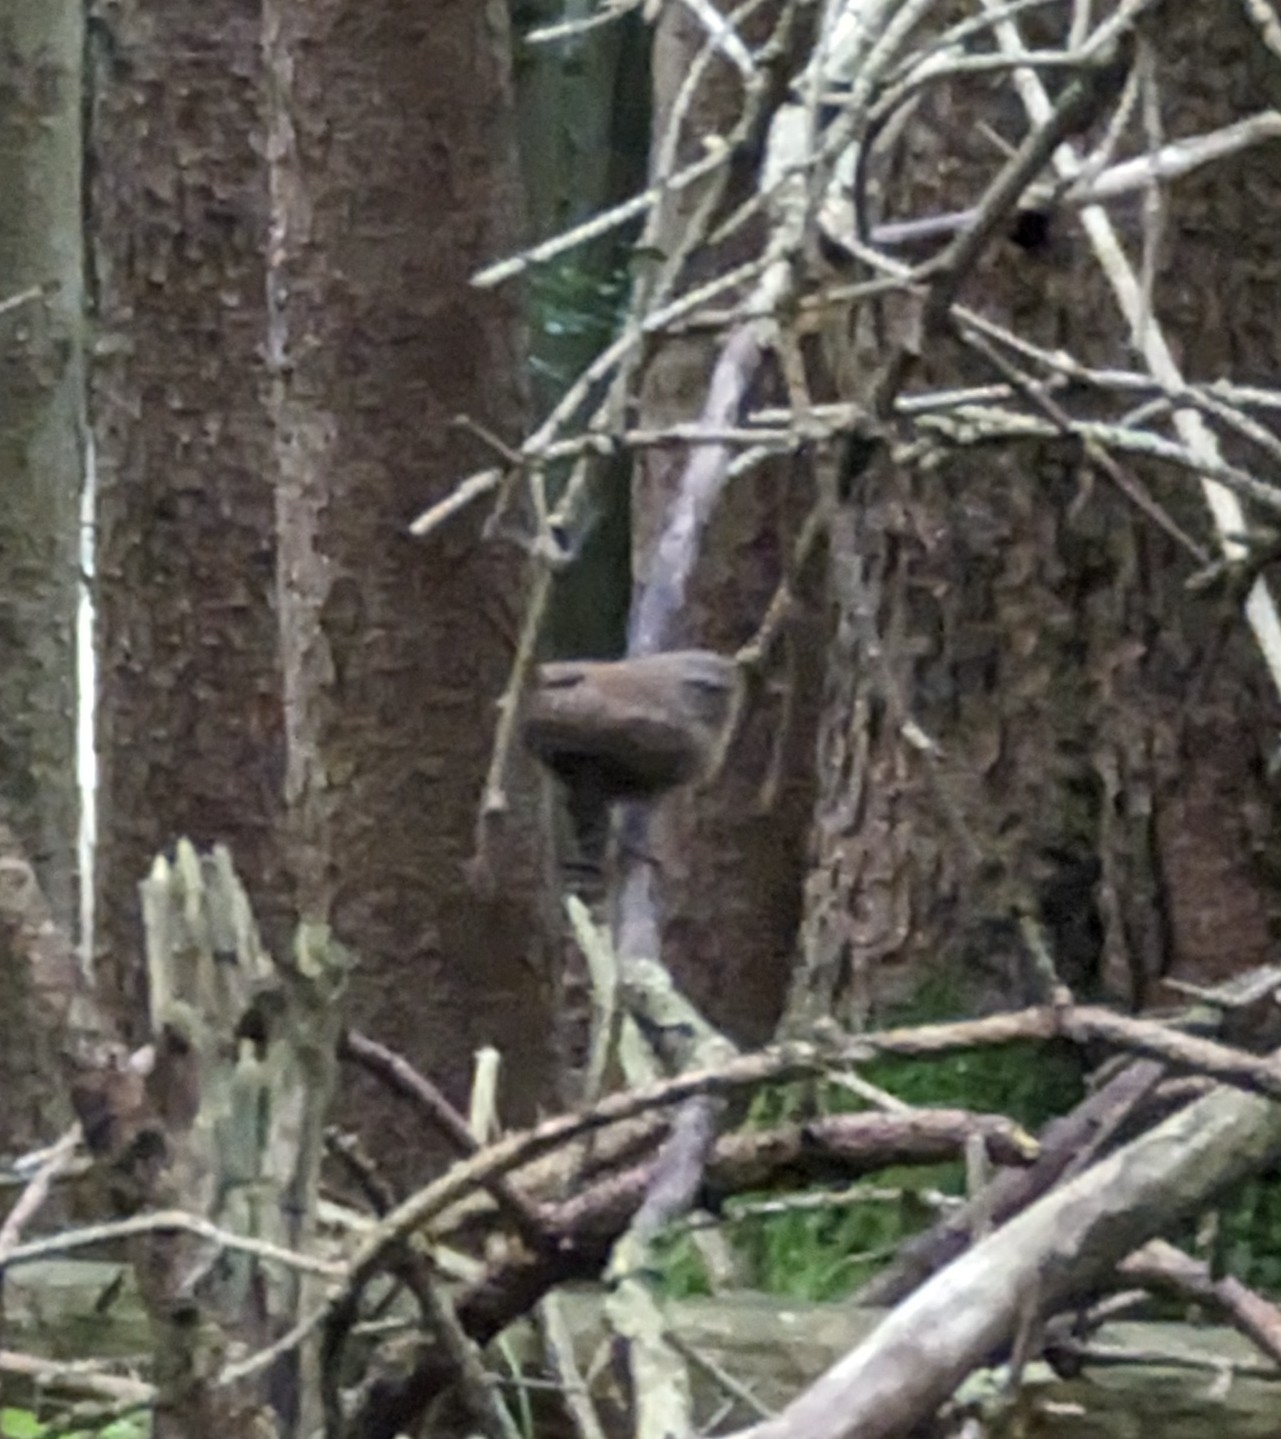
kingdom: Animalia
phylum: Chordata
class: Aves
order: Passeriformes
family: Troglodytidae
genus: Troglodytes
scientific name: Troglodytes troglodytes
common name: Eurasian wren
